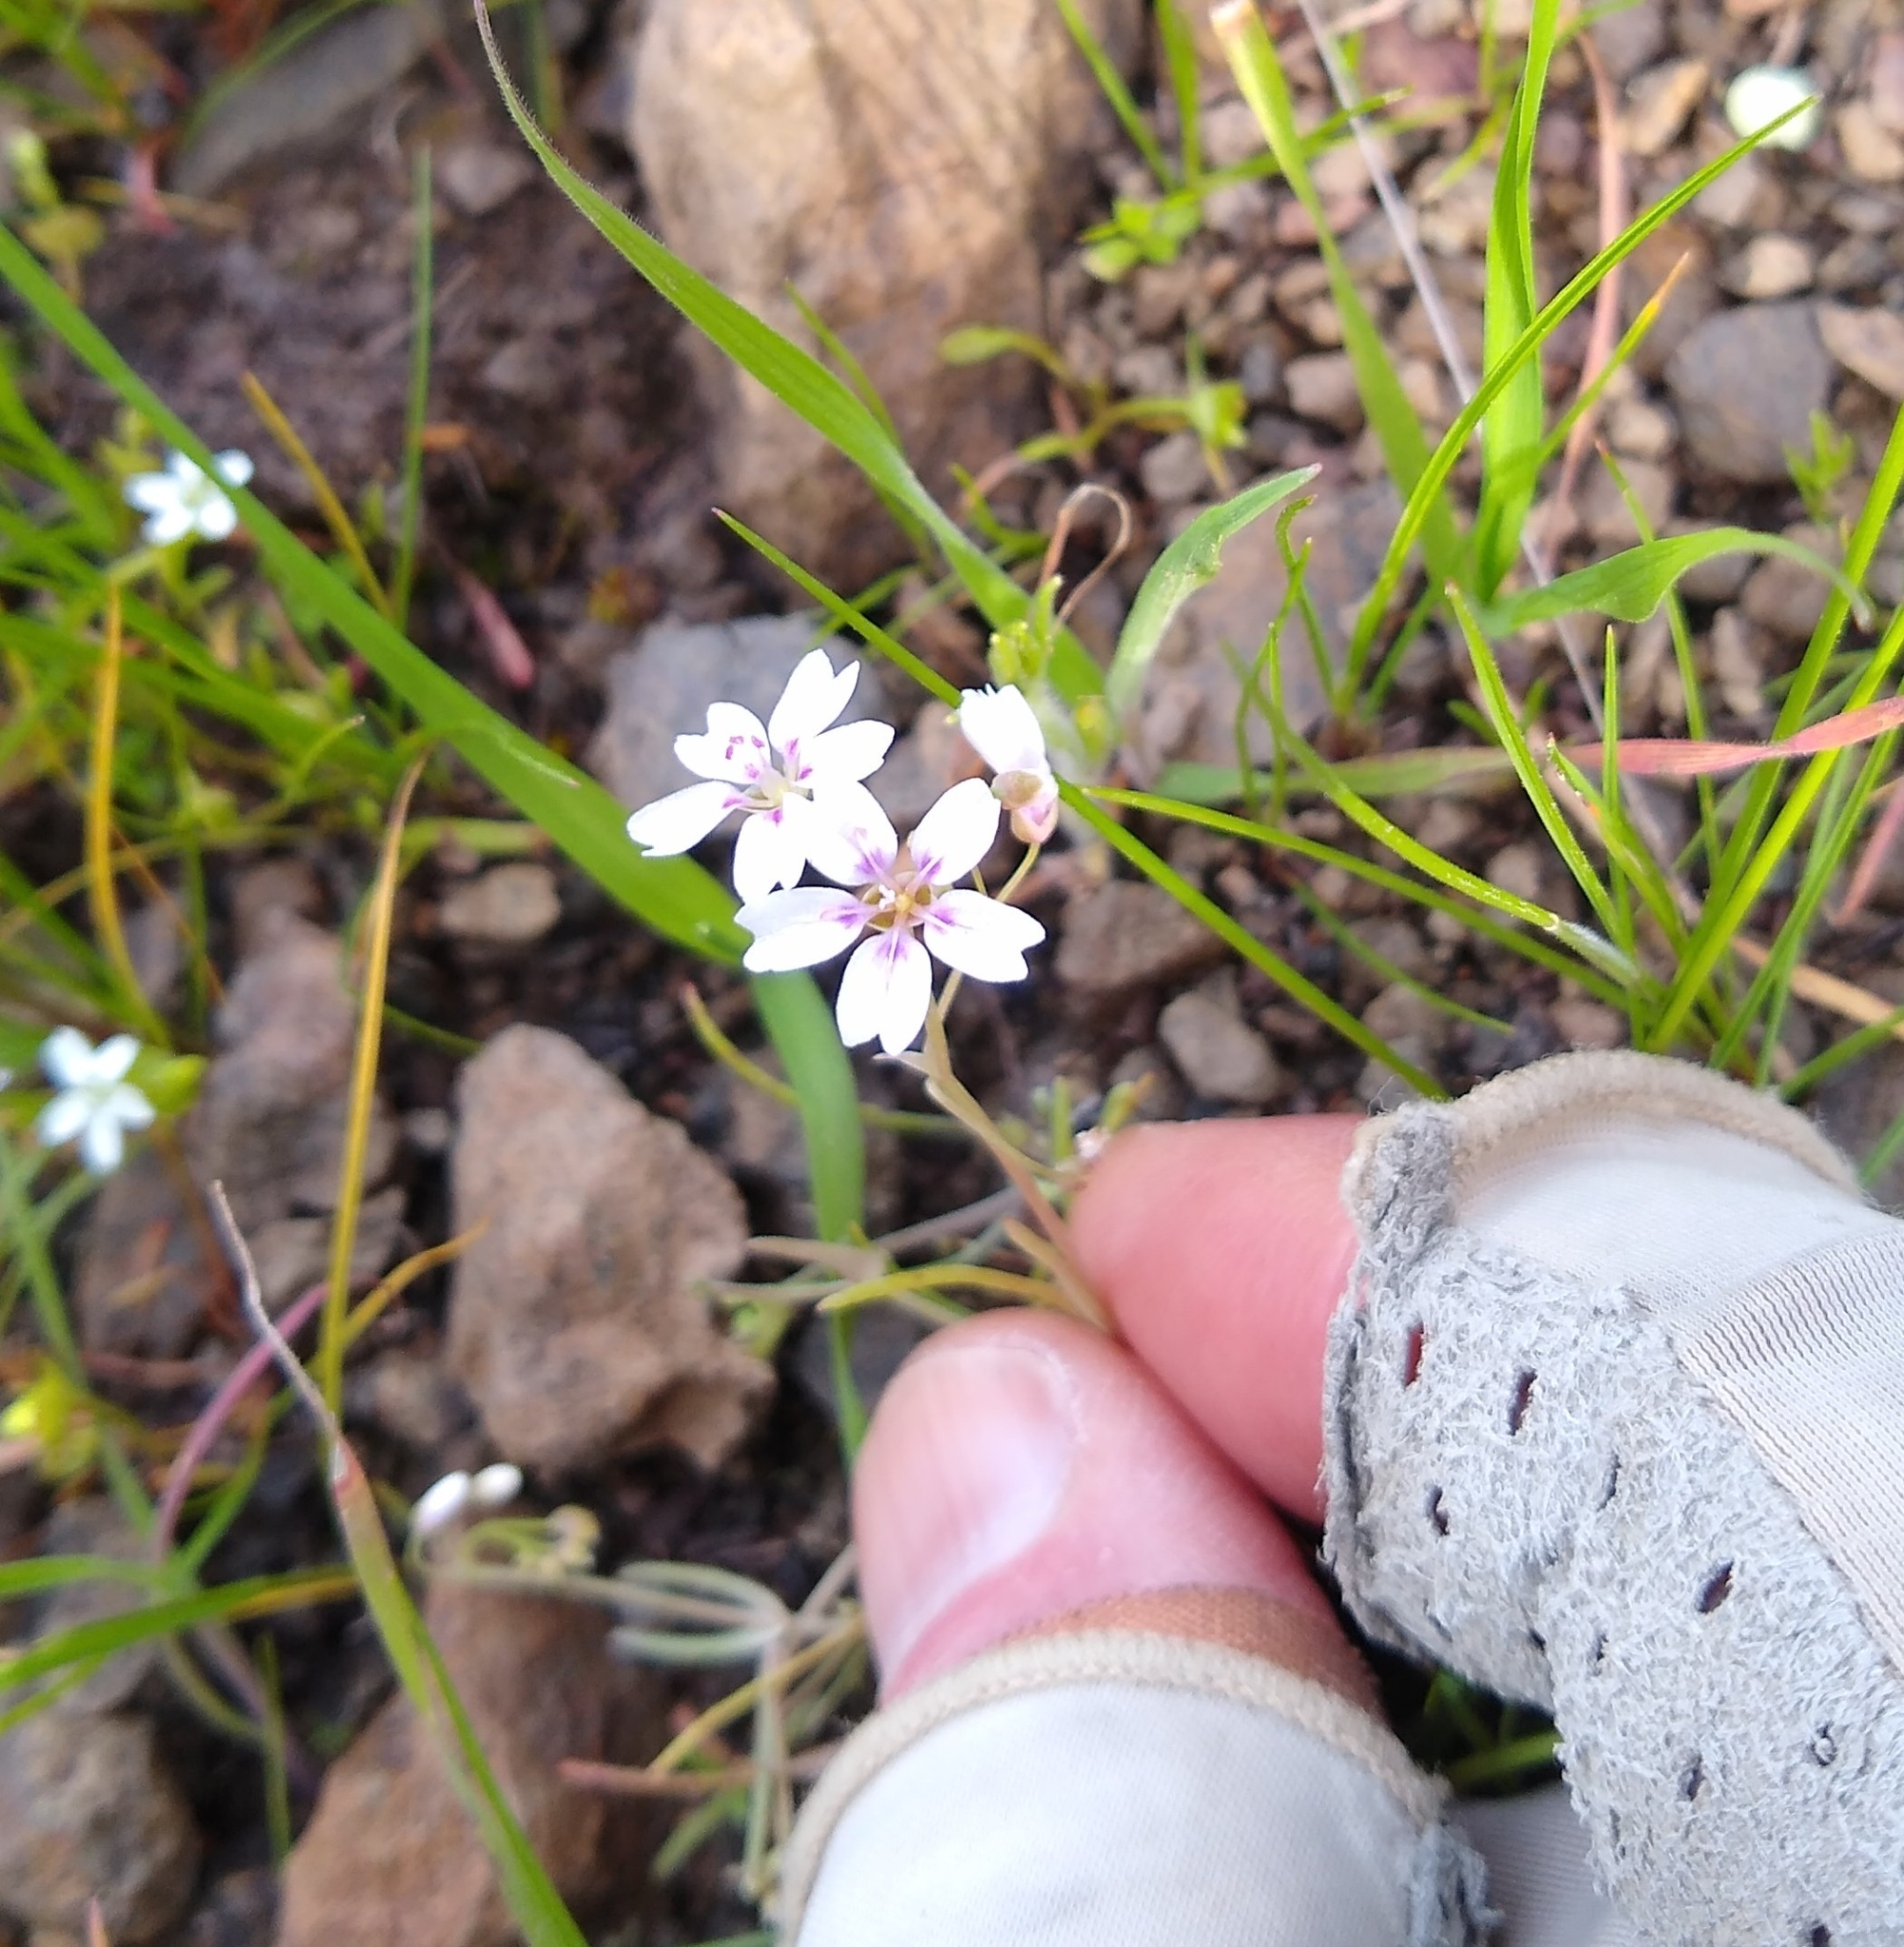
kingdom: Plantae
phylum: Tracheophyta
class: Magnoliopsida
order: Caryophyllales
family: Montiaceae
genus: Claytonia
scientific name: Claytonia gypsophiloides
